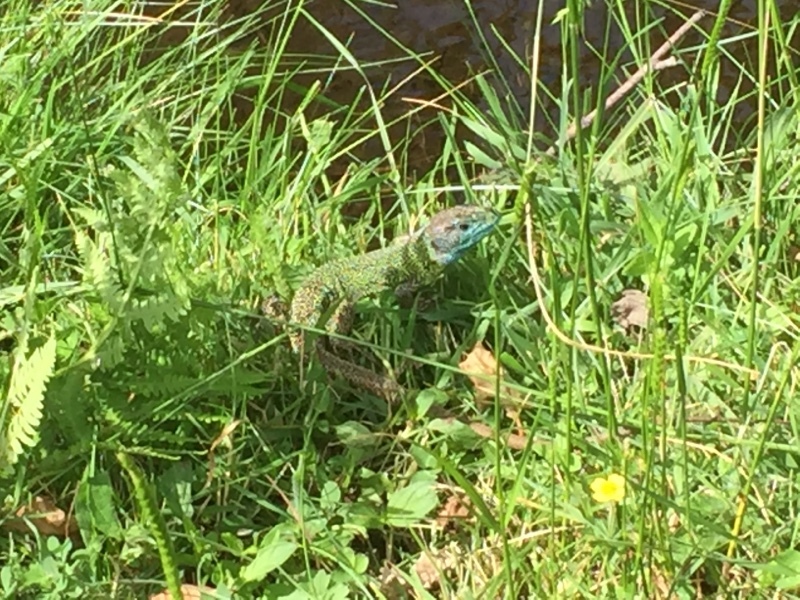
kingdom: Animalia
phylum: Chordata
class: Squamata
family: Lacertidae
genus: Lacerta
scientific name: Lacerta schreiberi
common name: Iberian emerald lizard
